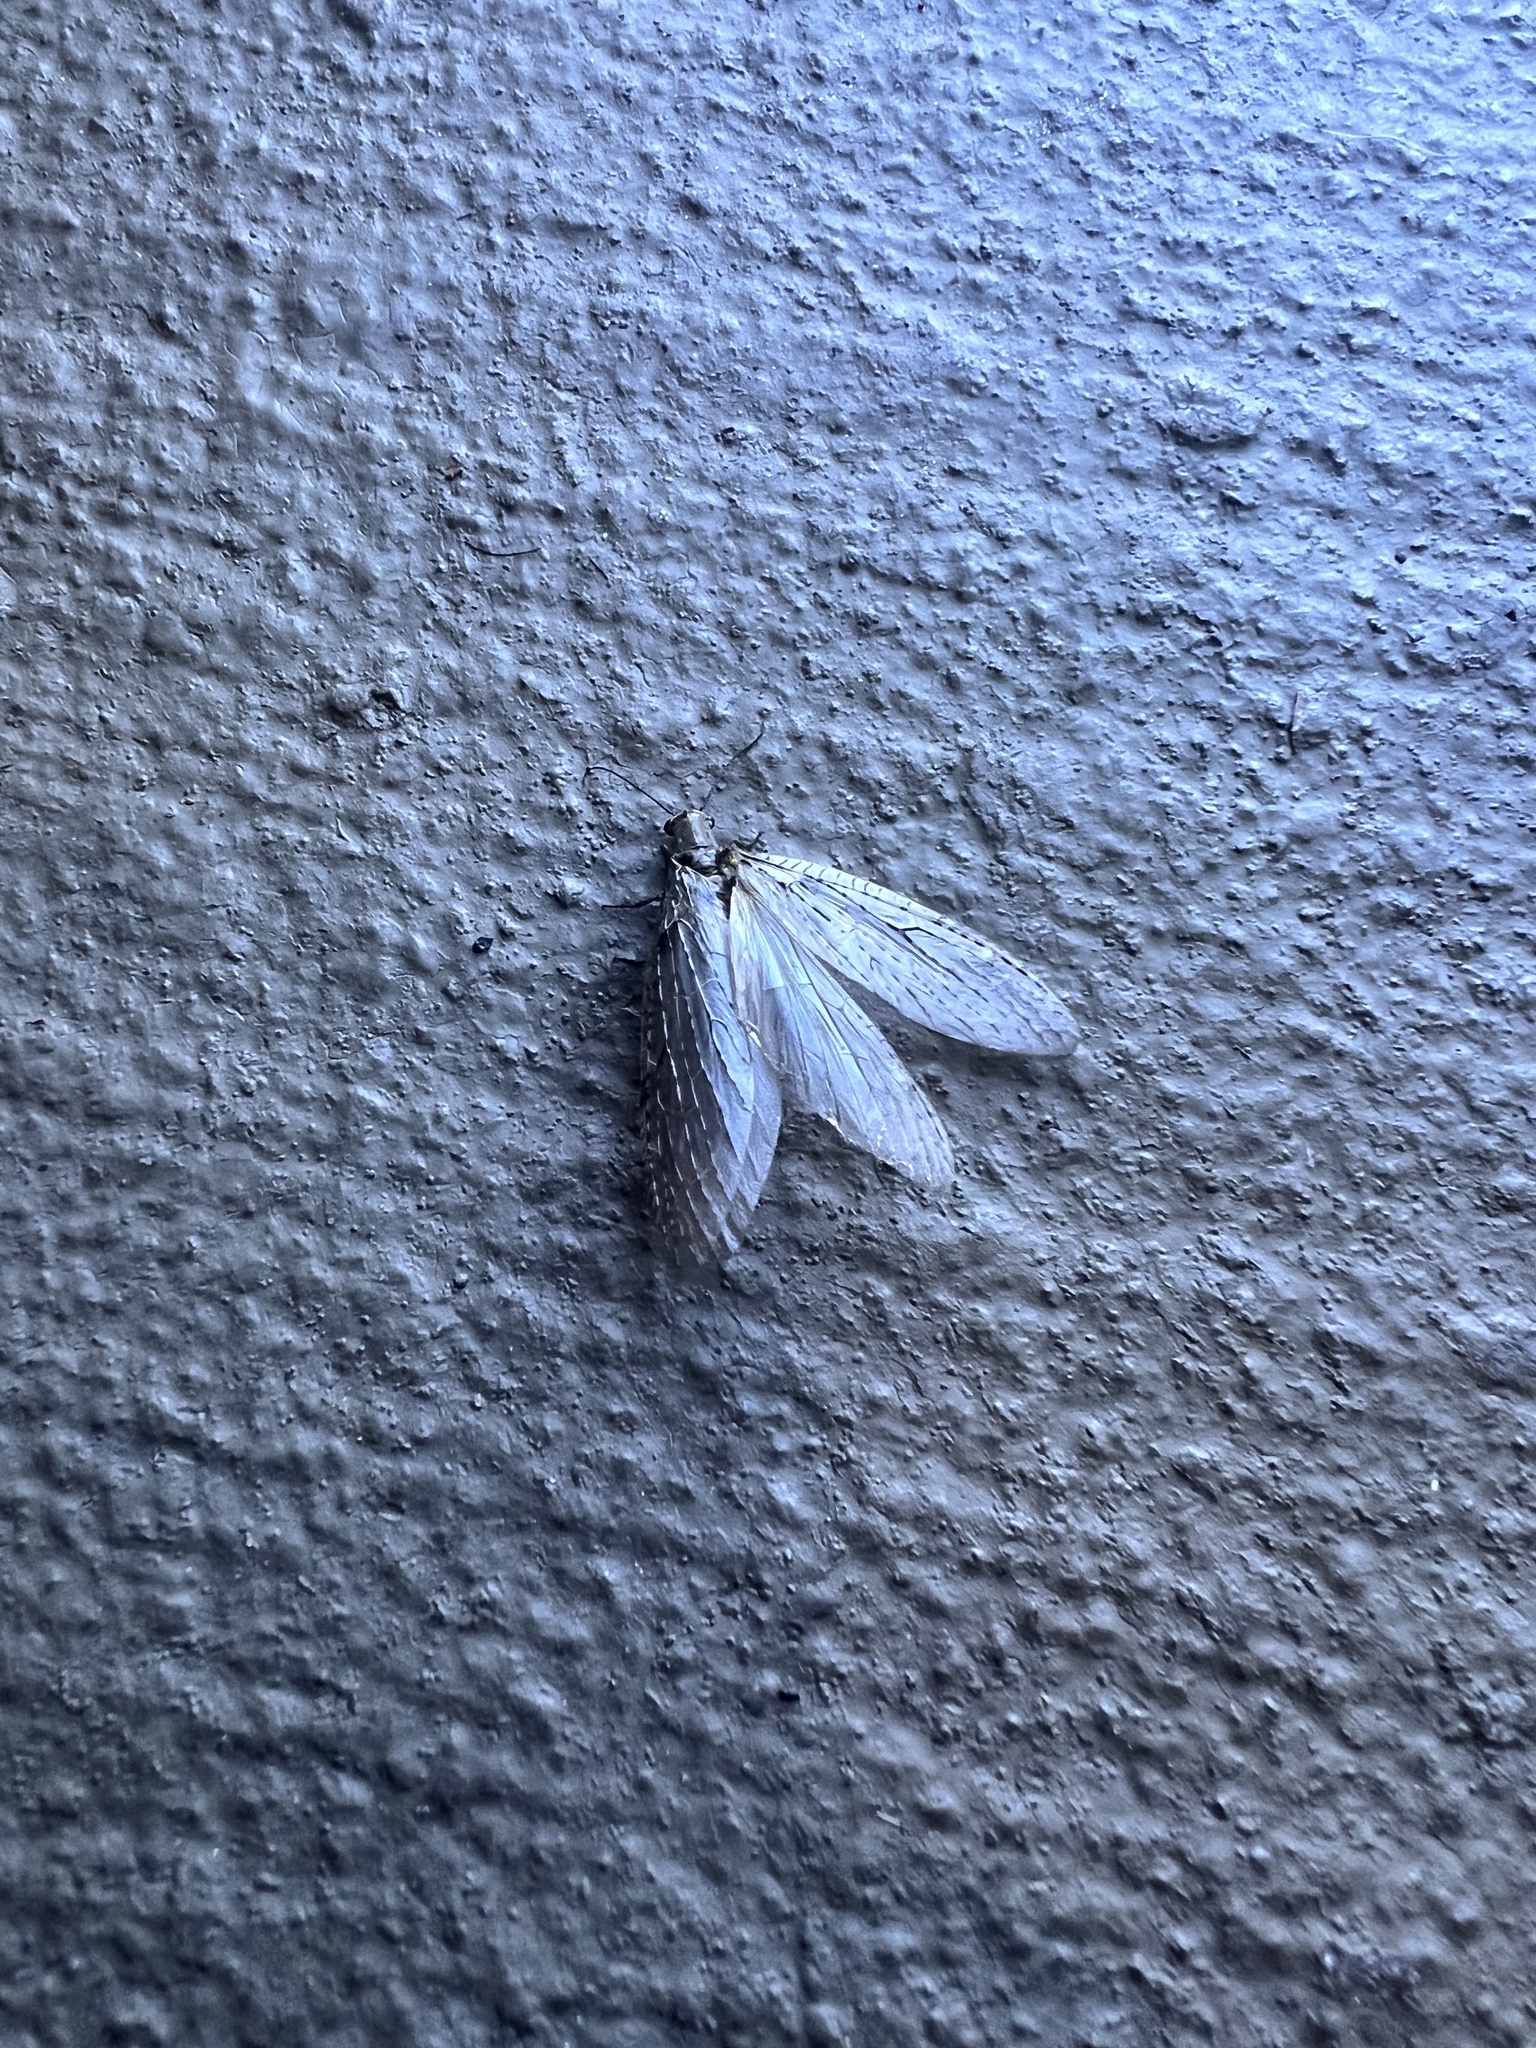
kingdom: Animalia
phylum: Arthropoda
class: Insecta
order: Megaloptera
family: Corydalidae
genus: Chauliodes
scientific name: Chauliodes rastricornis
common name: Spring fishfly
